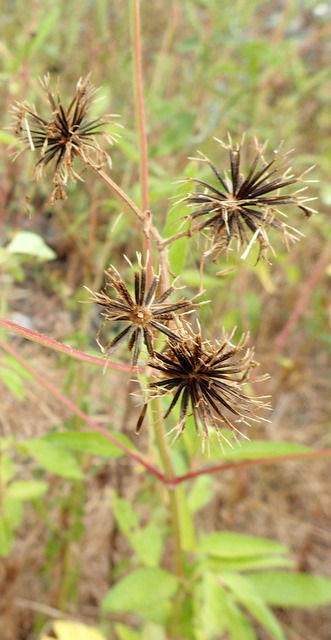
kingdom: Plantae
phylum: Tracheophyta
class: Magnoliopsida
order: Asterales
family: Asteraceae
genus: Bidens
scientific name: Bidens alba
